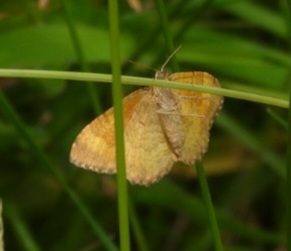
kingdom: Animalia
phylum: Arthropoda
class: Insecta
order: Lepidoptera
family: Geometridae
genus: Camptogramma
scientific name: Camptogramma bilineata
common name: Yellow shell
